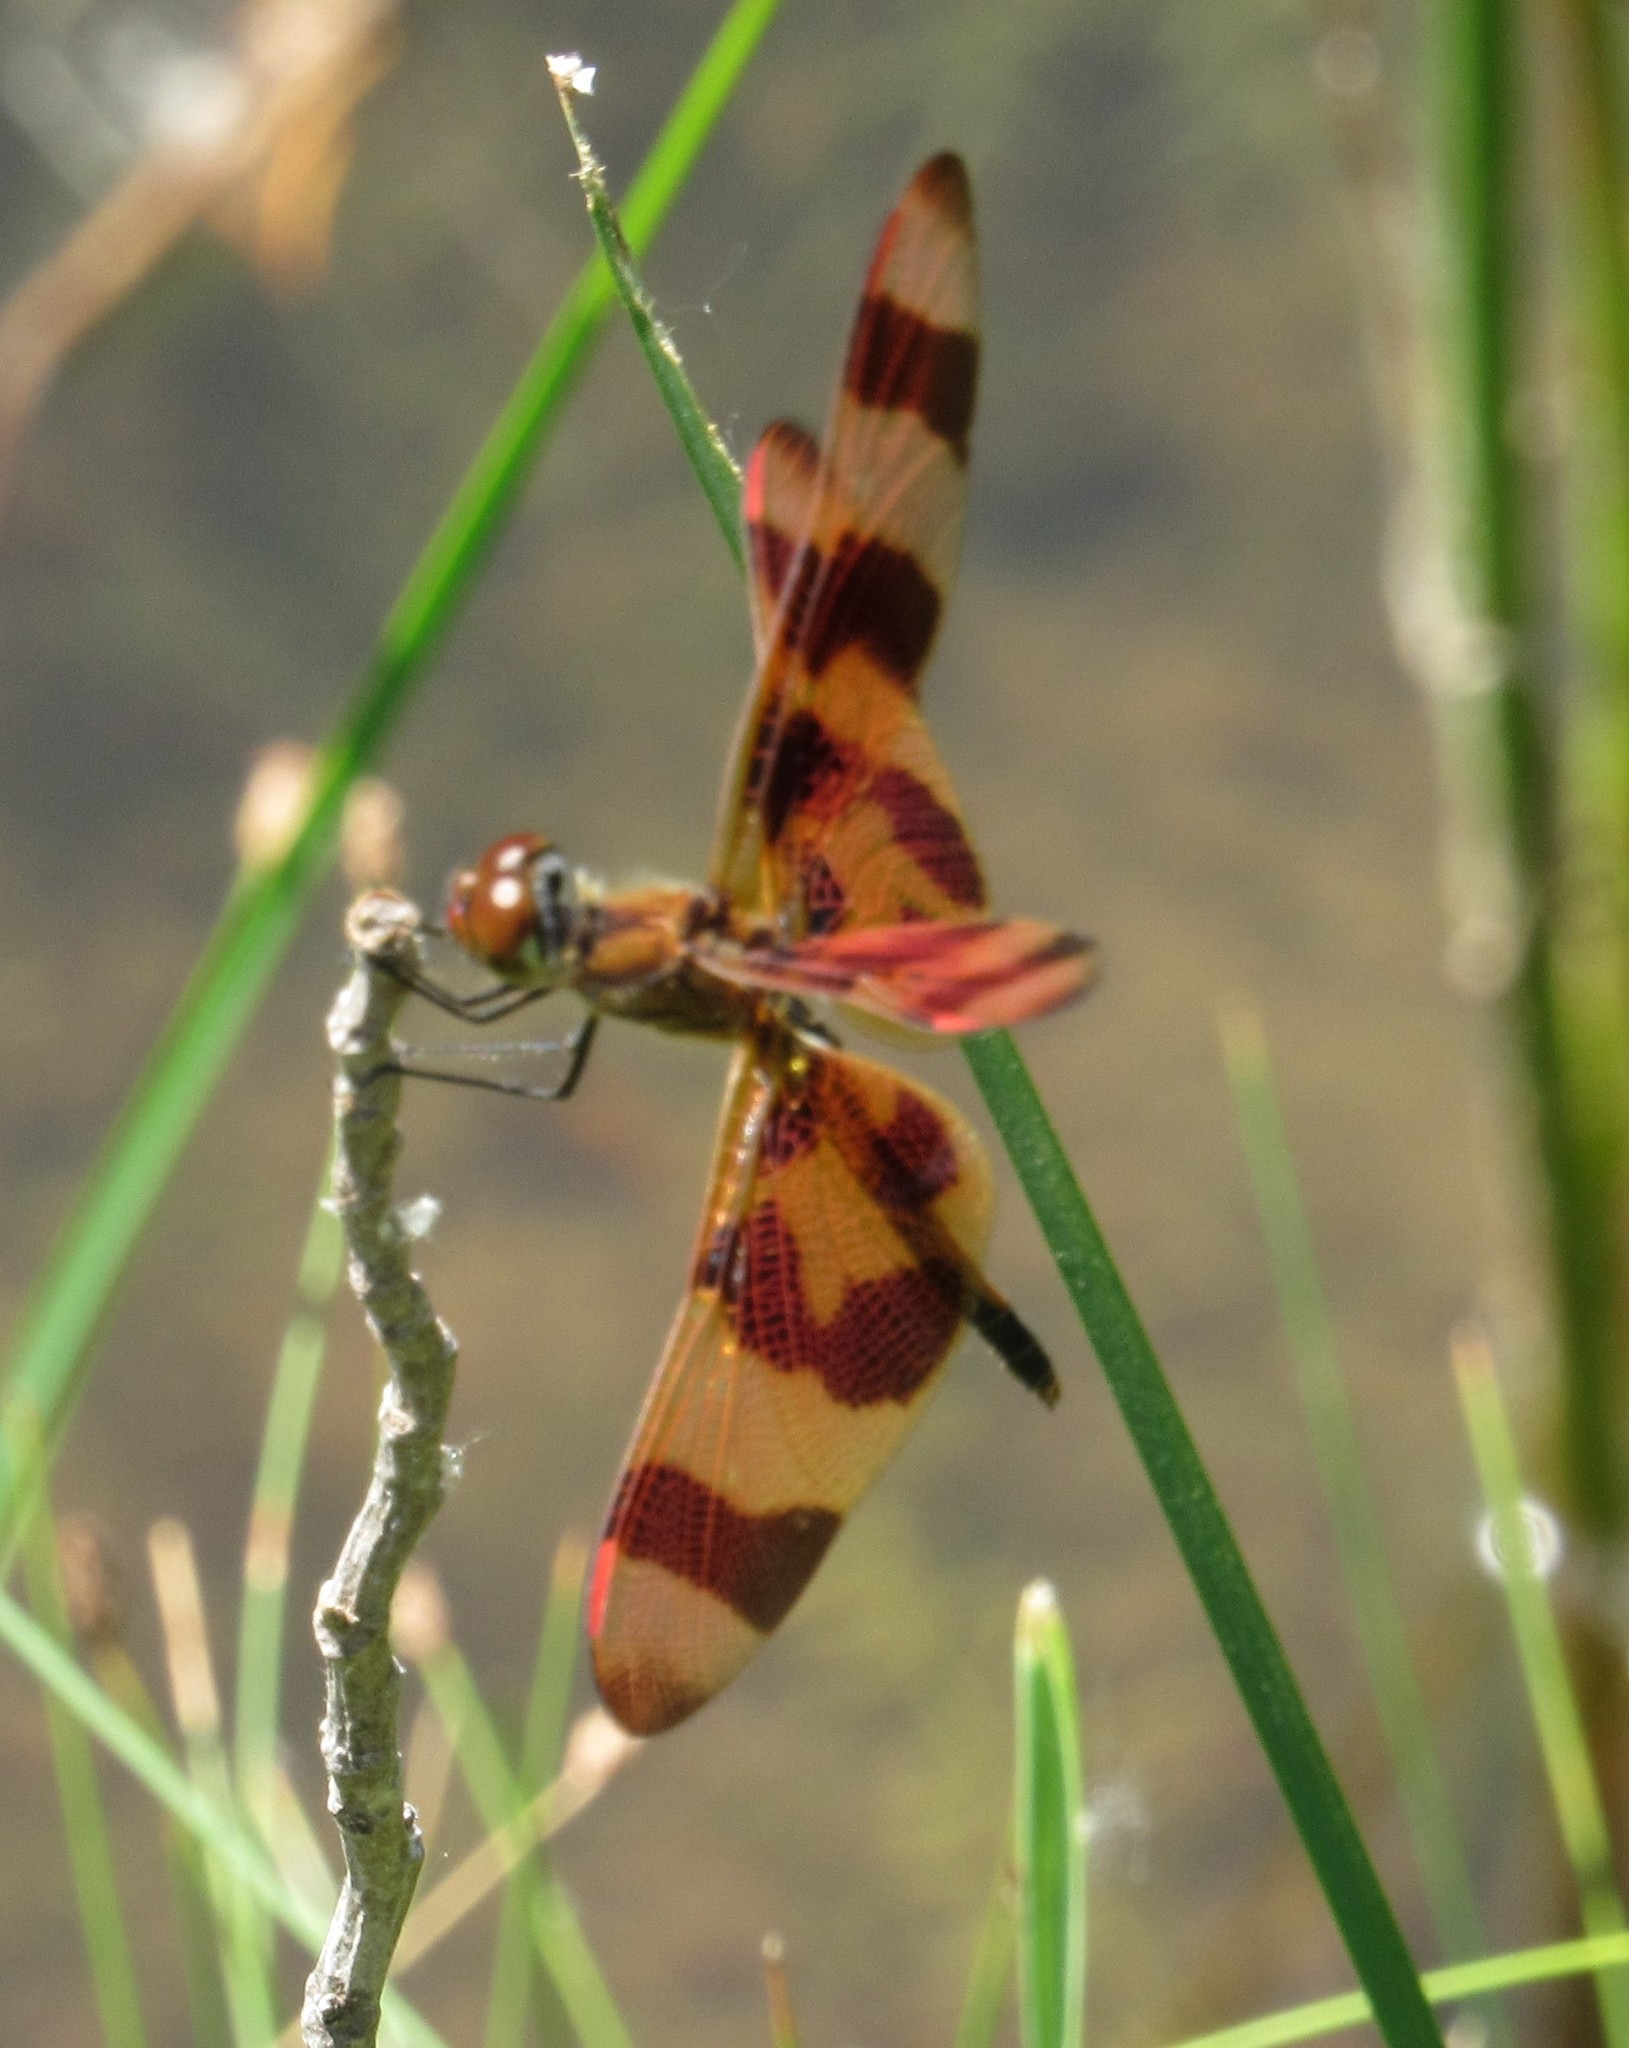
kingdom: Animalia
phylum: Arthropoda
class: Insecta
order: Odonata
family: Libellulidae
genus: Celithemis
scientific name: Celithemis eponina
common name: Halloween pennant
